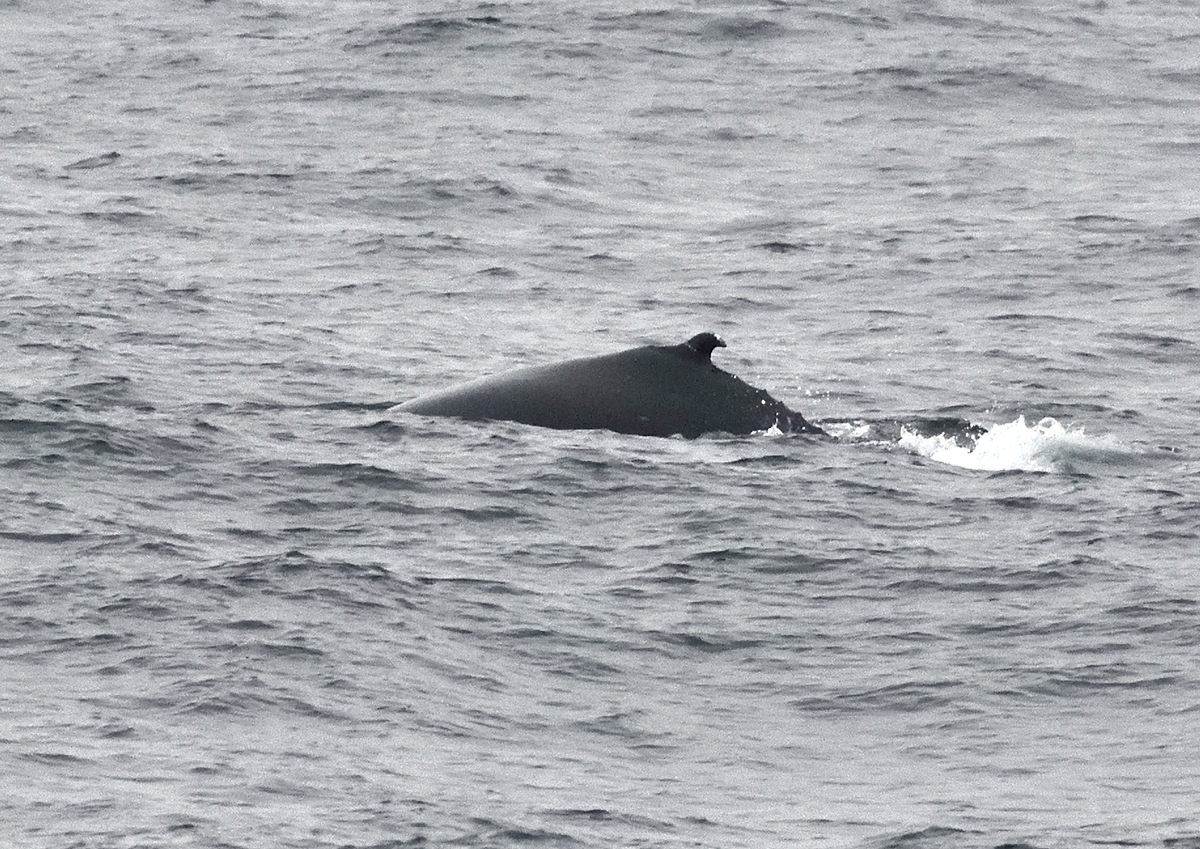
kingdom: Animalia
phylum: Chordata
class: Mammalia
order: Cetacea
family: Balaenopteridae
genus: Megaptera
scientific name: Megaptera novaeangliae
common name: Humpback whale
